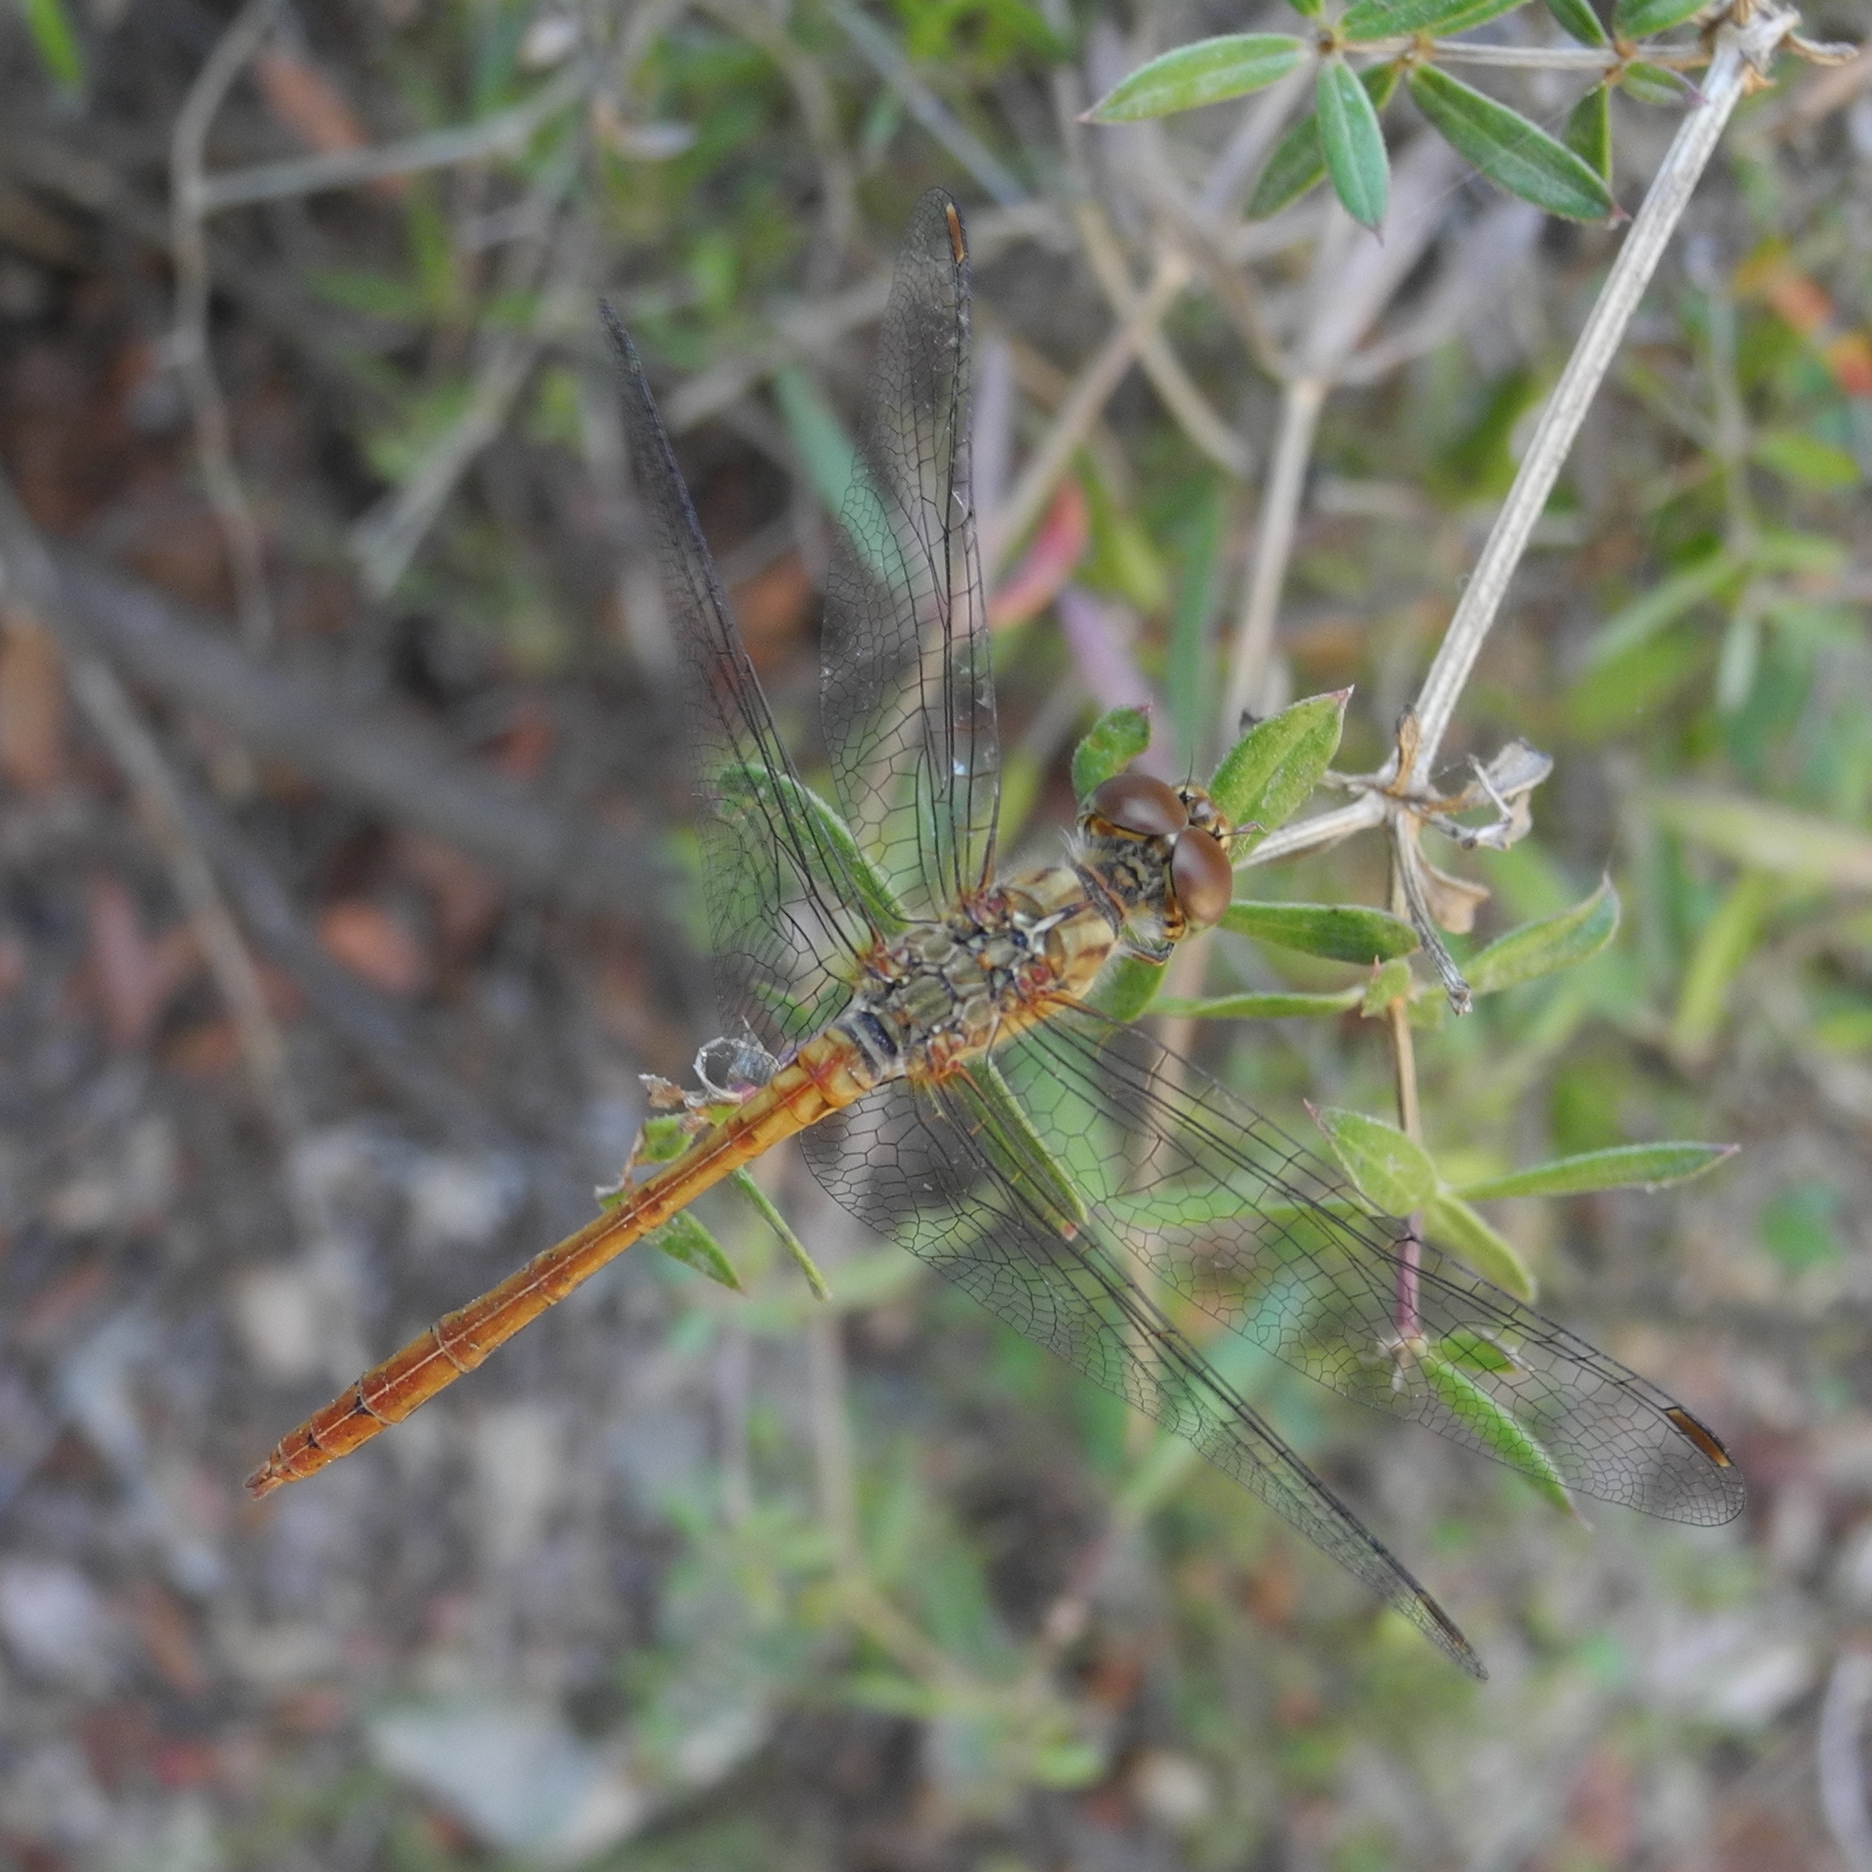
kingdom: Animalia
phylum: Arthropoda
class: Insecta
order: Odonata
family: Libellulidae
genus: Sympetrum
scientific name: Sympetrum meridionale
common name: Southern darter
